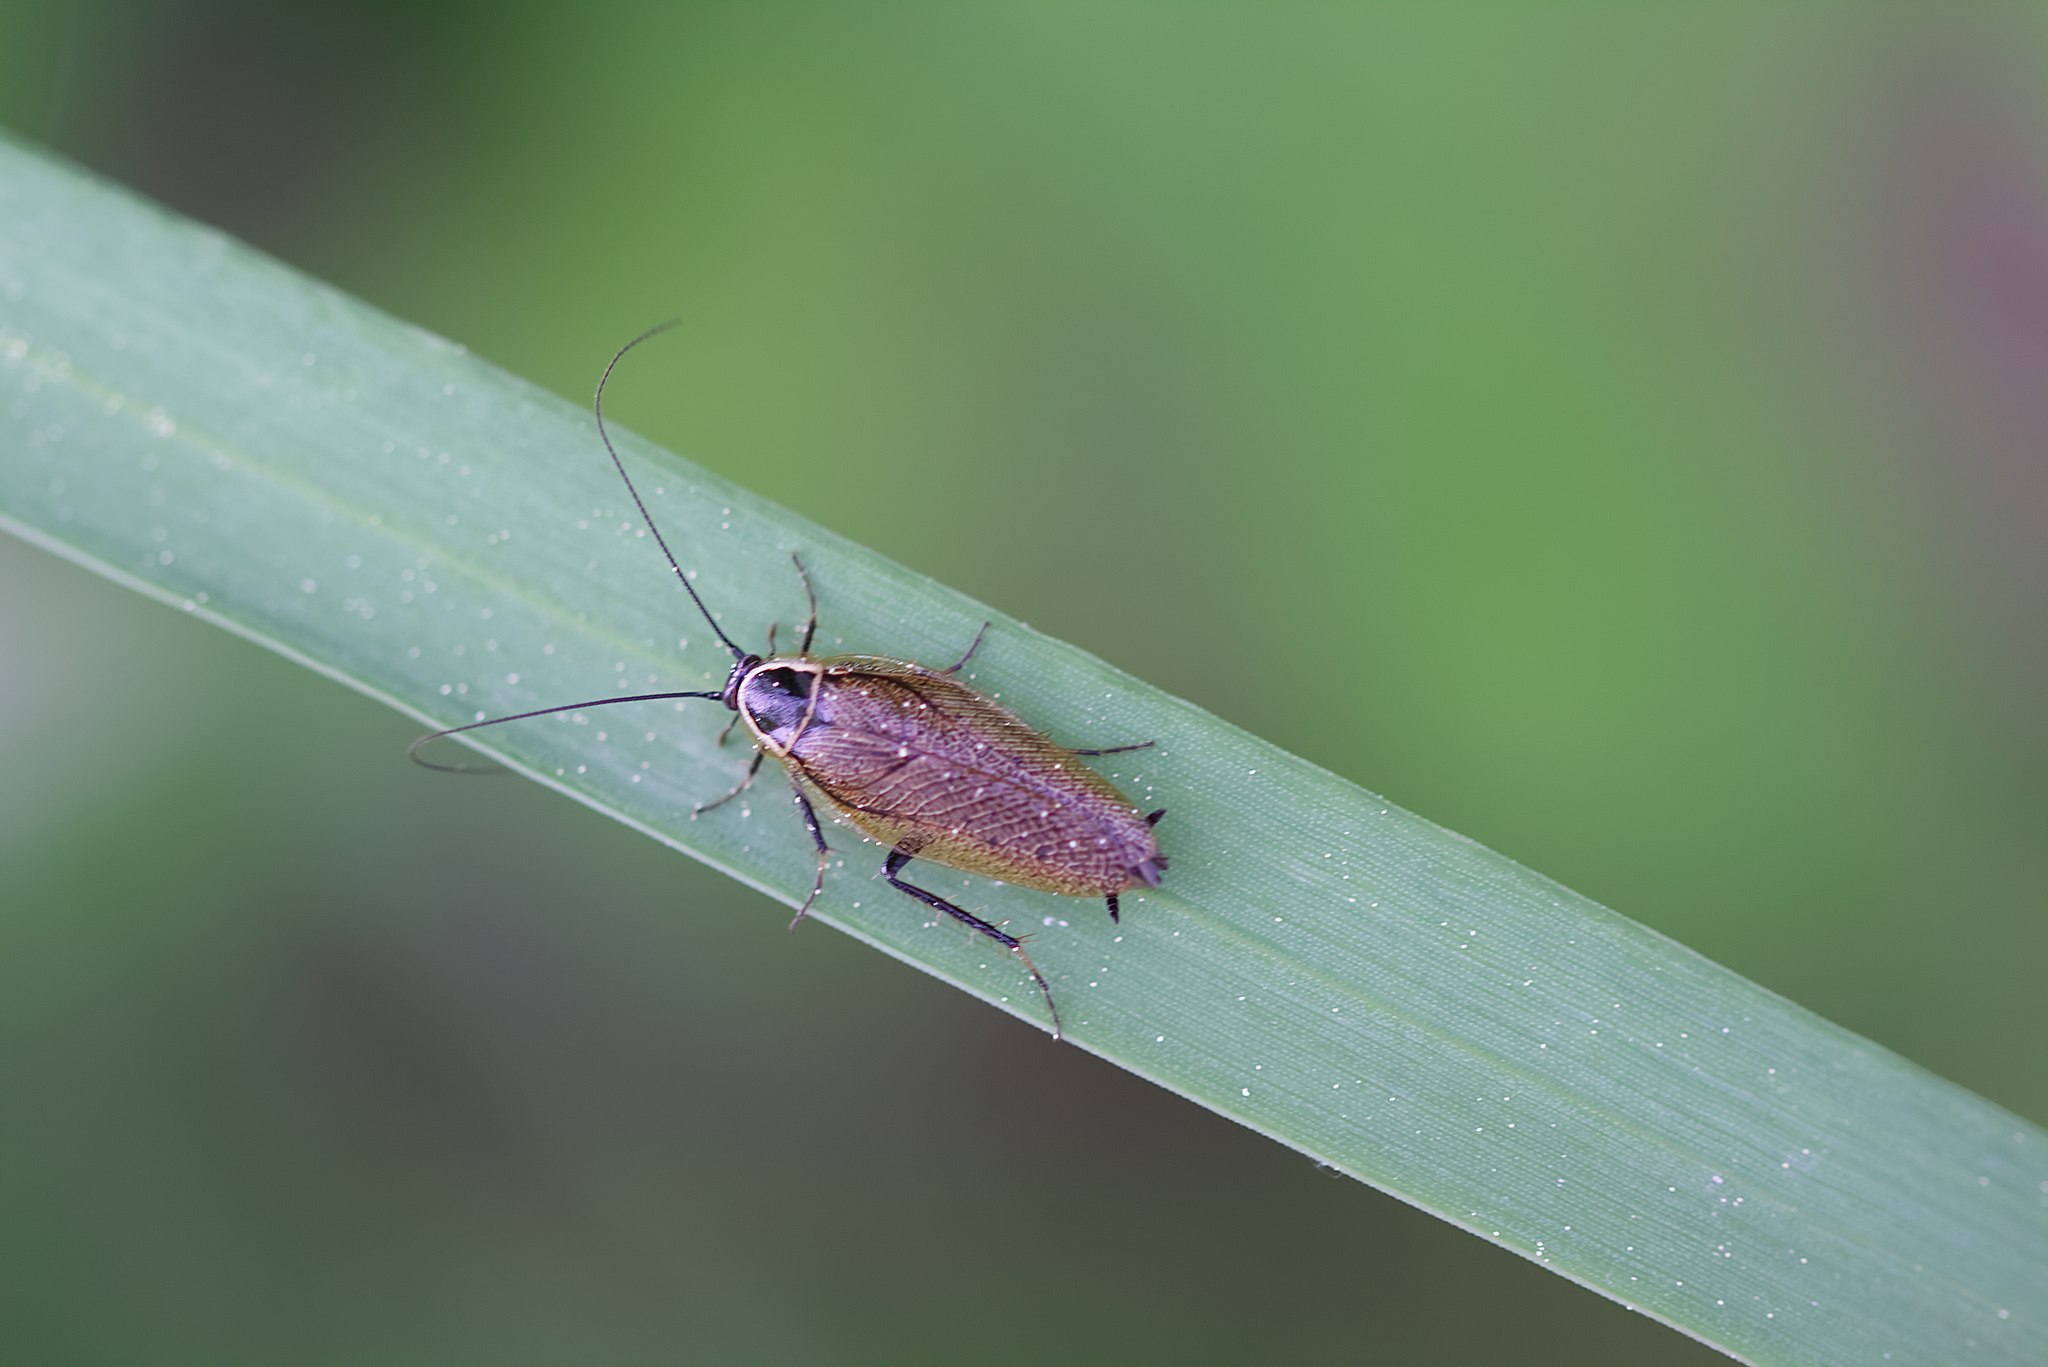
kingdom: Animalia
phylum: Arthropoda
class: Insecta
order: Blattodea
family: Ectobiidae
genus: Ectobius
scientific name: Ectobius sylvestris
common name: Forest cockroach
